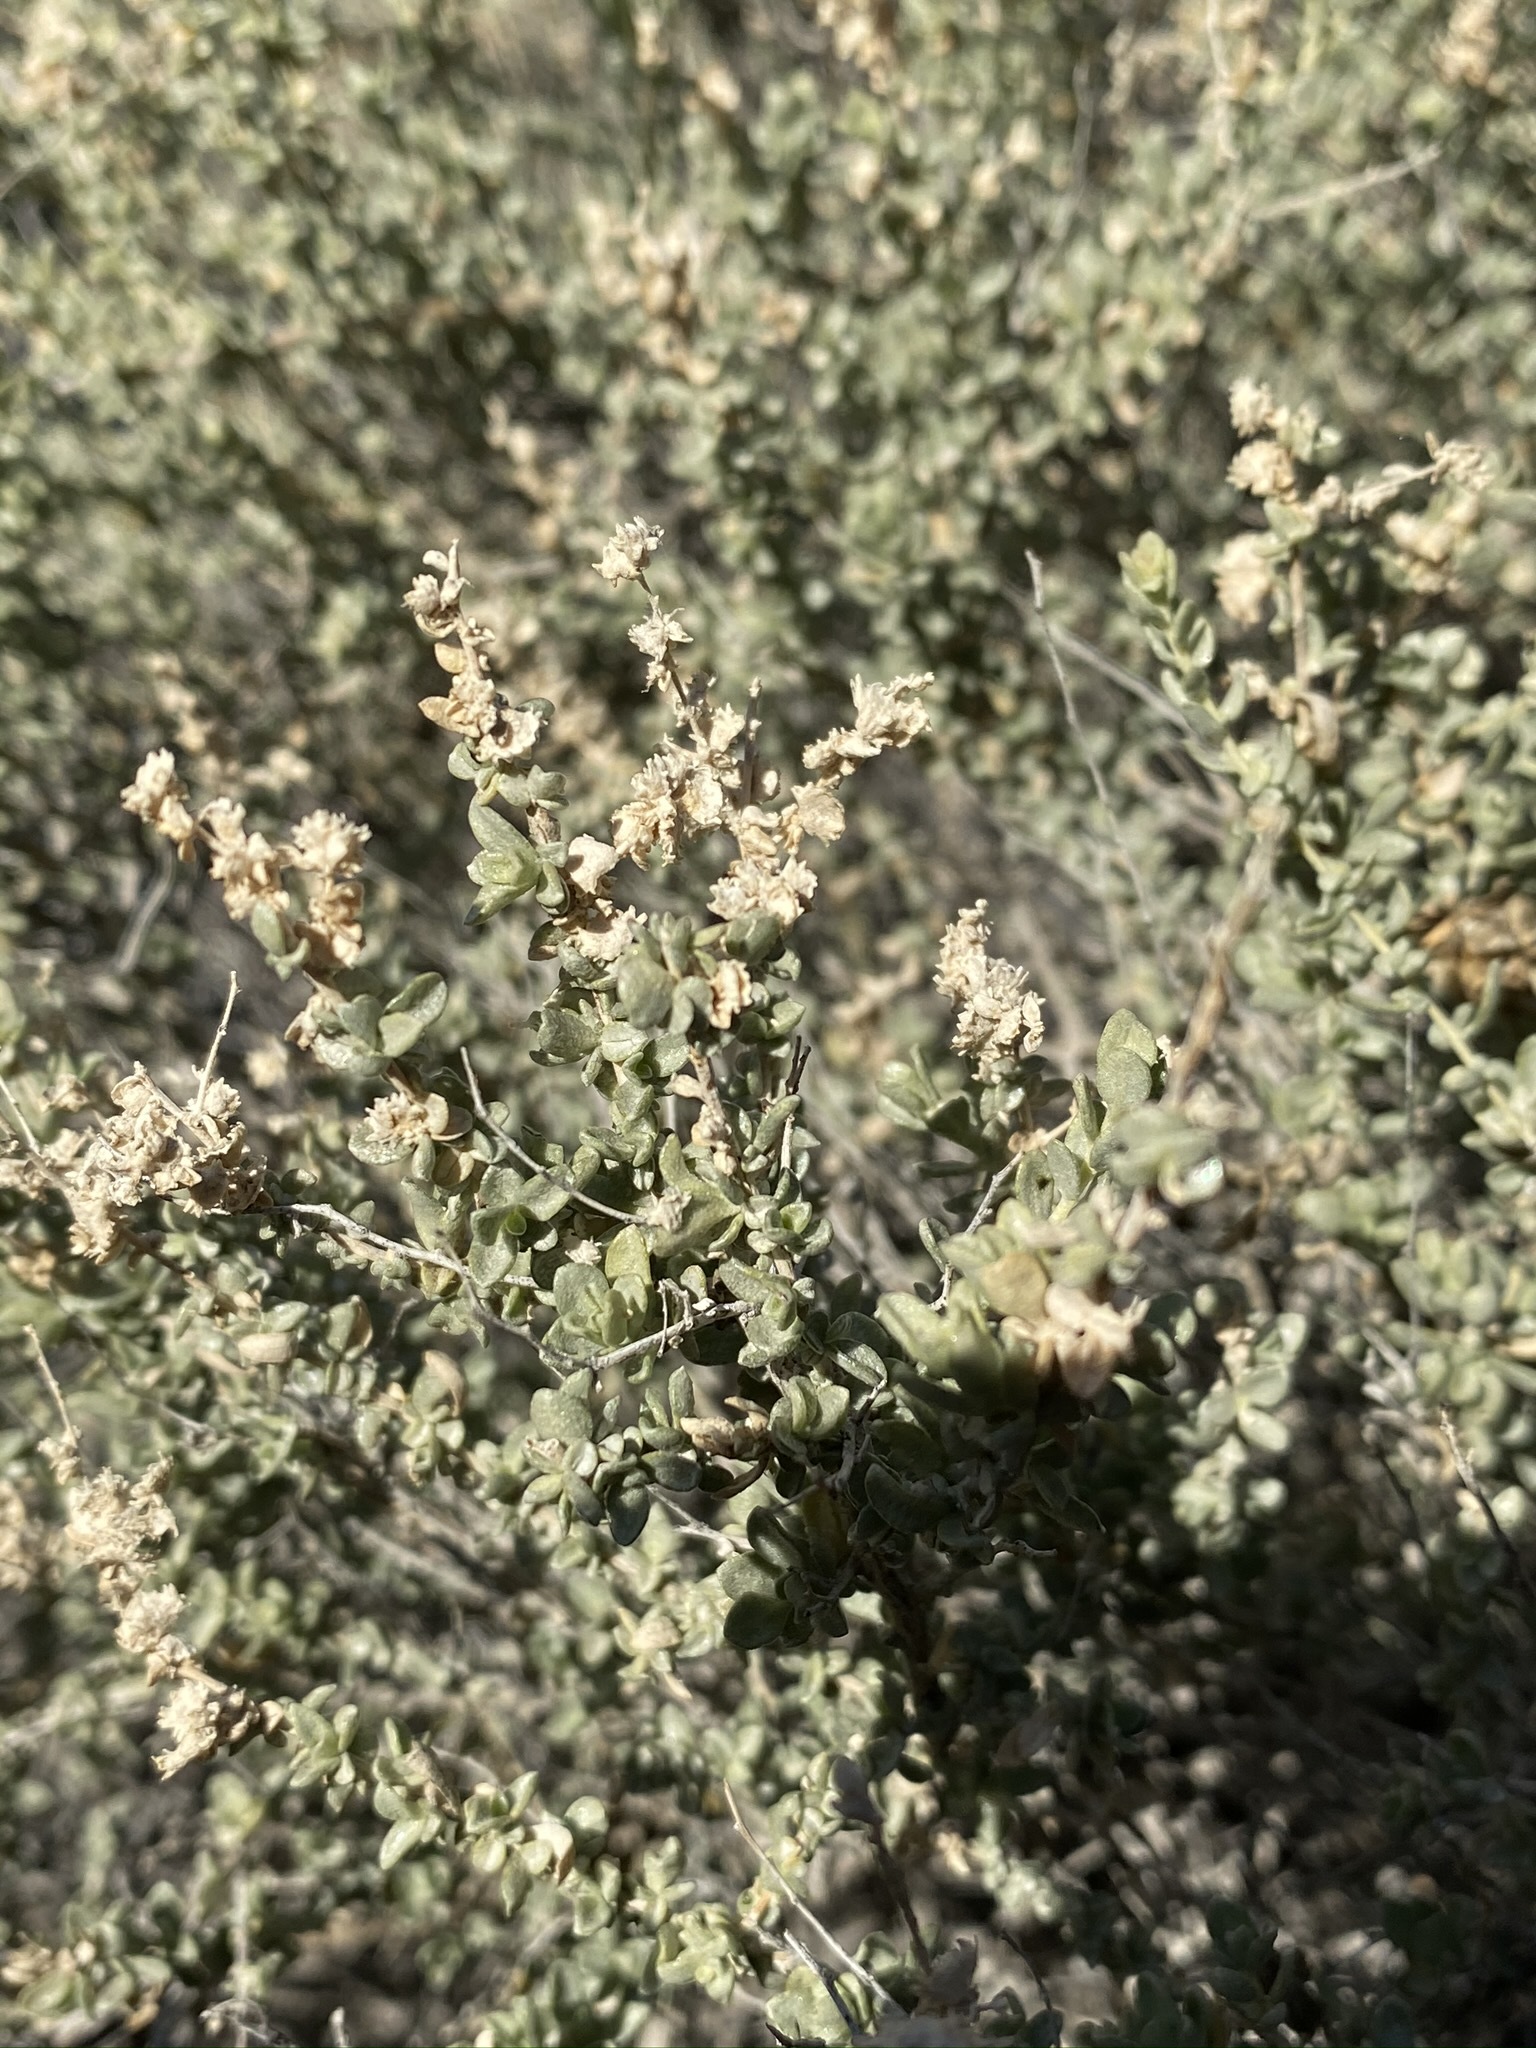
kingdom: Plantae
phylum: Tracheophyta
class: Magnoliopsida
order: Caryophyllales
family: Amaranthaceae
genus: Atriplex
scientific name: Atriplex polycarpa
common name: Desert saltbush
